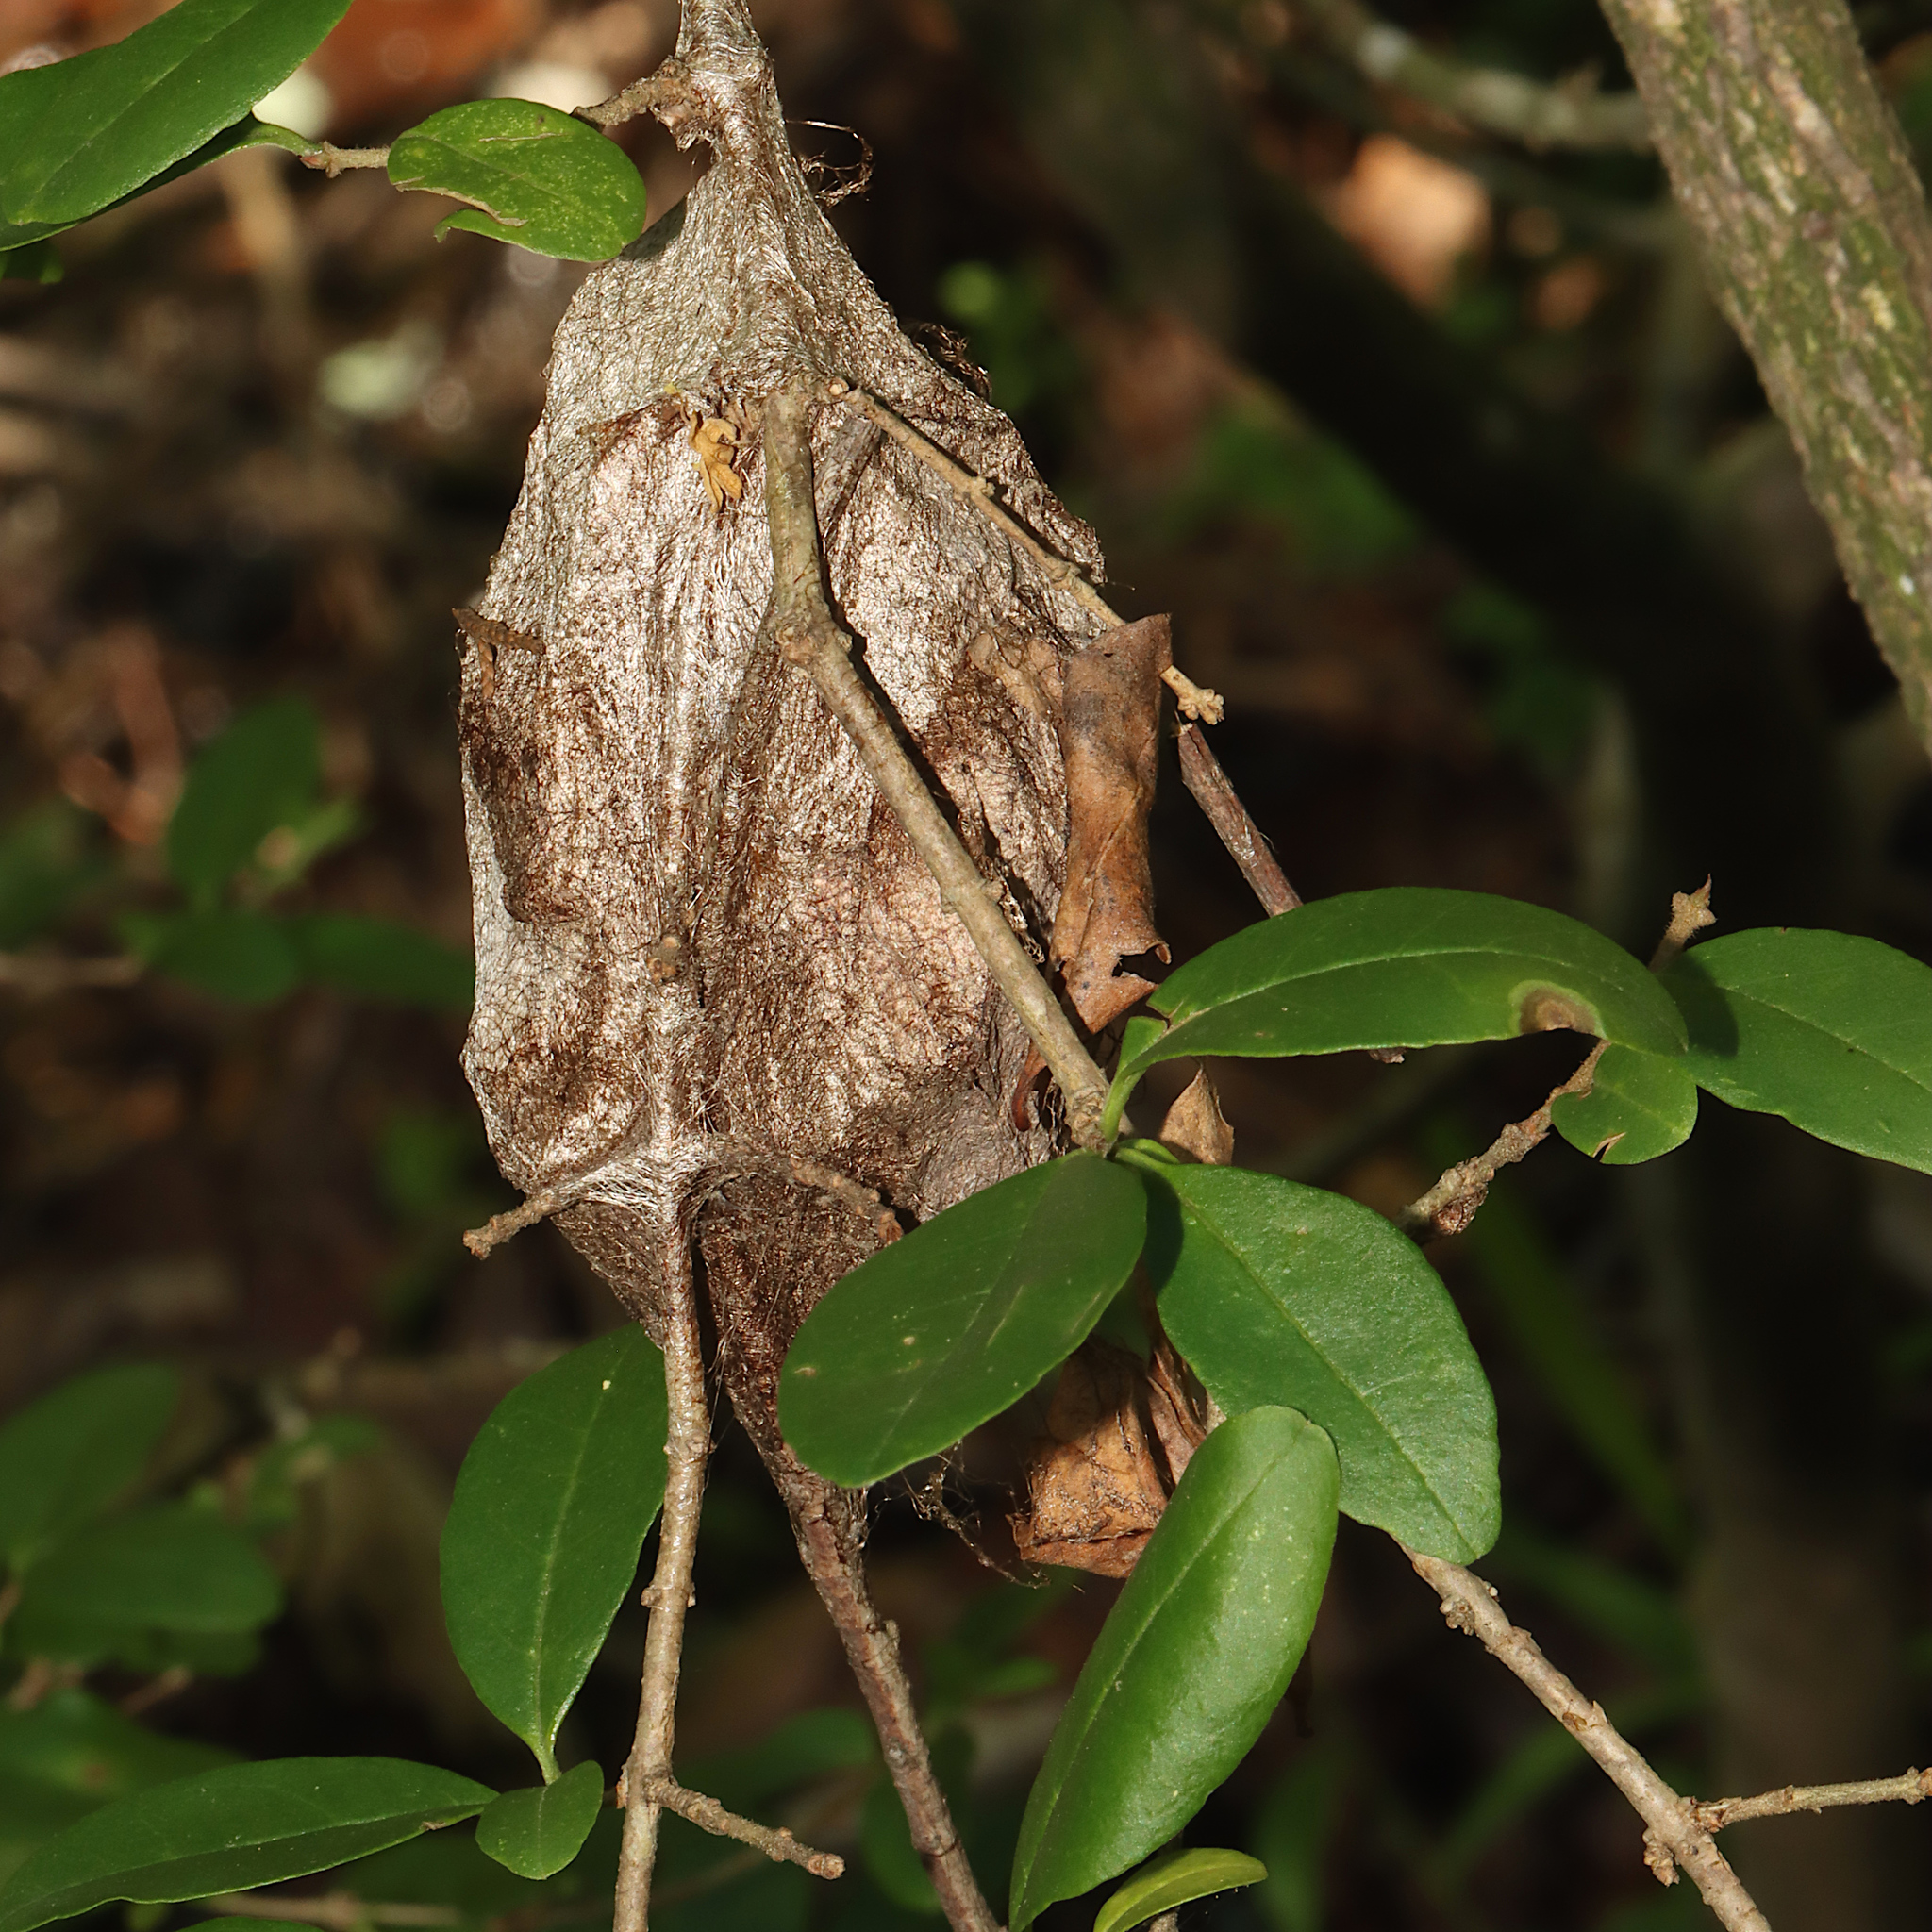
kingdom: Animalia
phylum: Arthropoda
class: Insecta
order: Lepidoptera
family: Saturniidae
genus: Hyalophora
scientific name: Hyalophora cecropia
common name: Cecropia silkmoth
